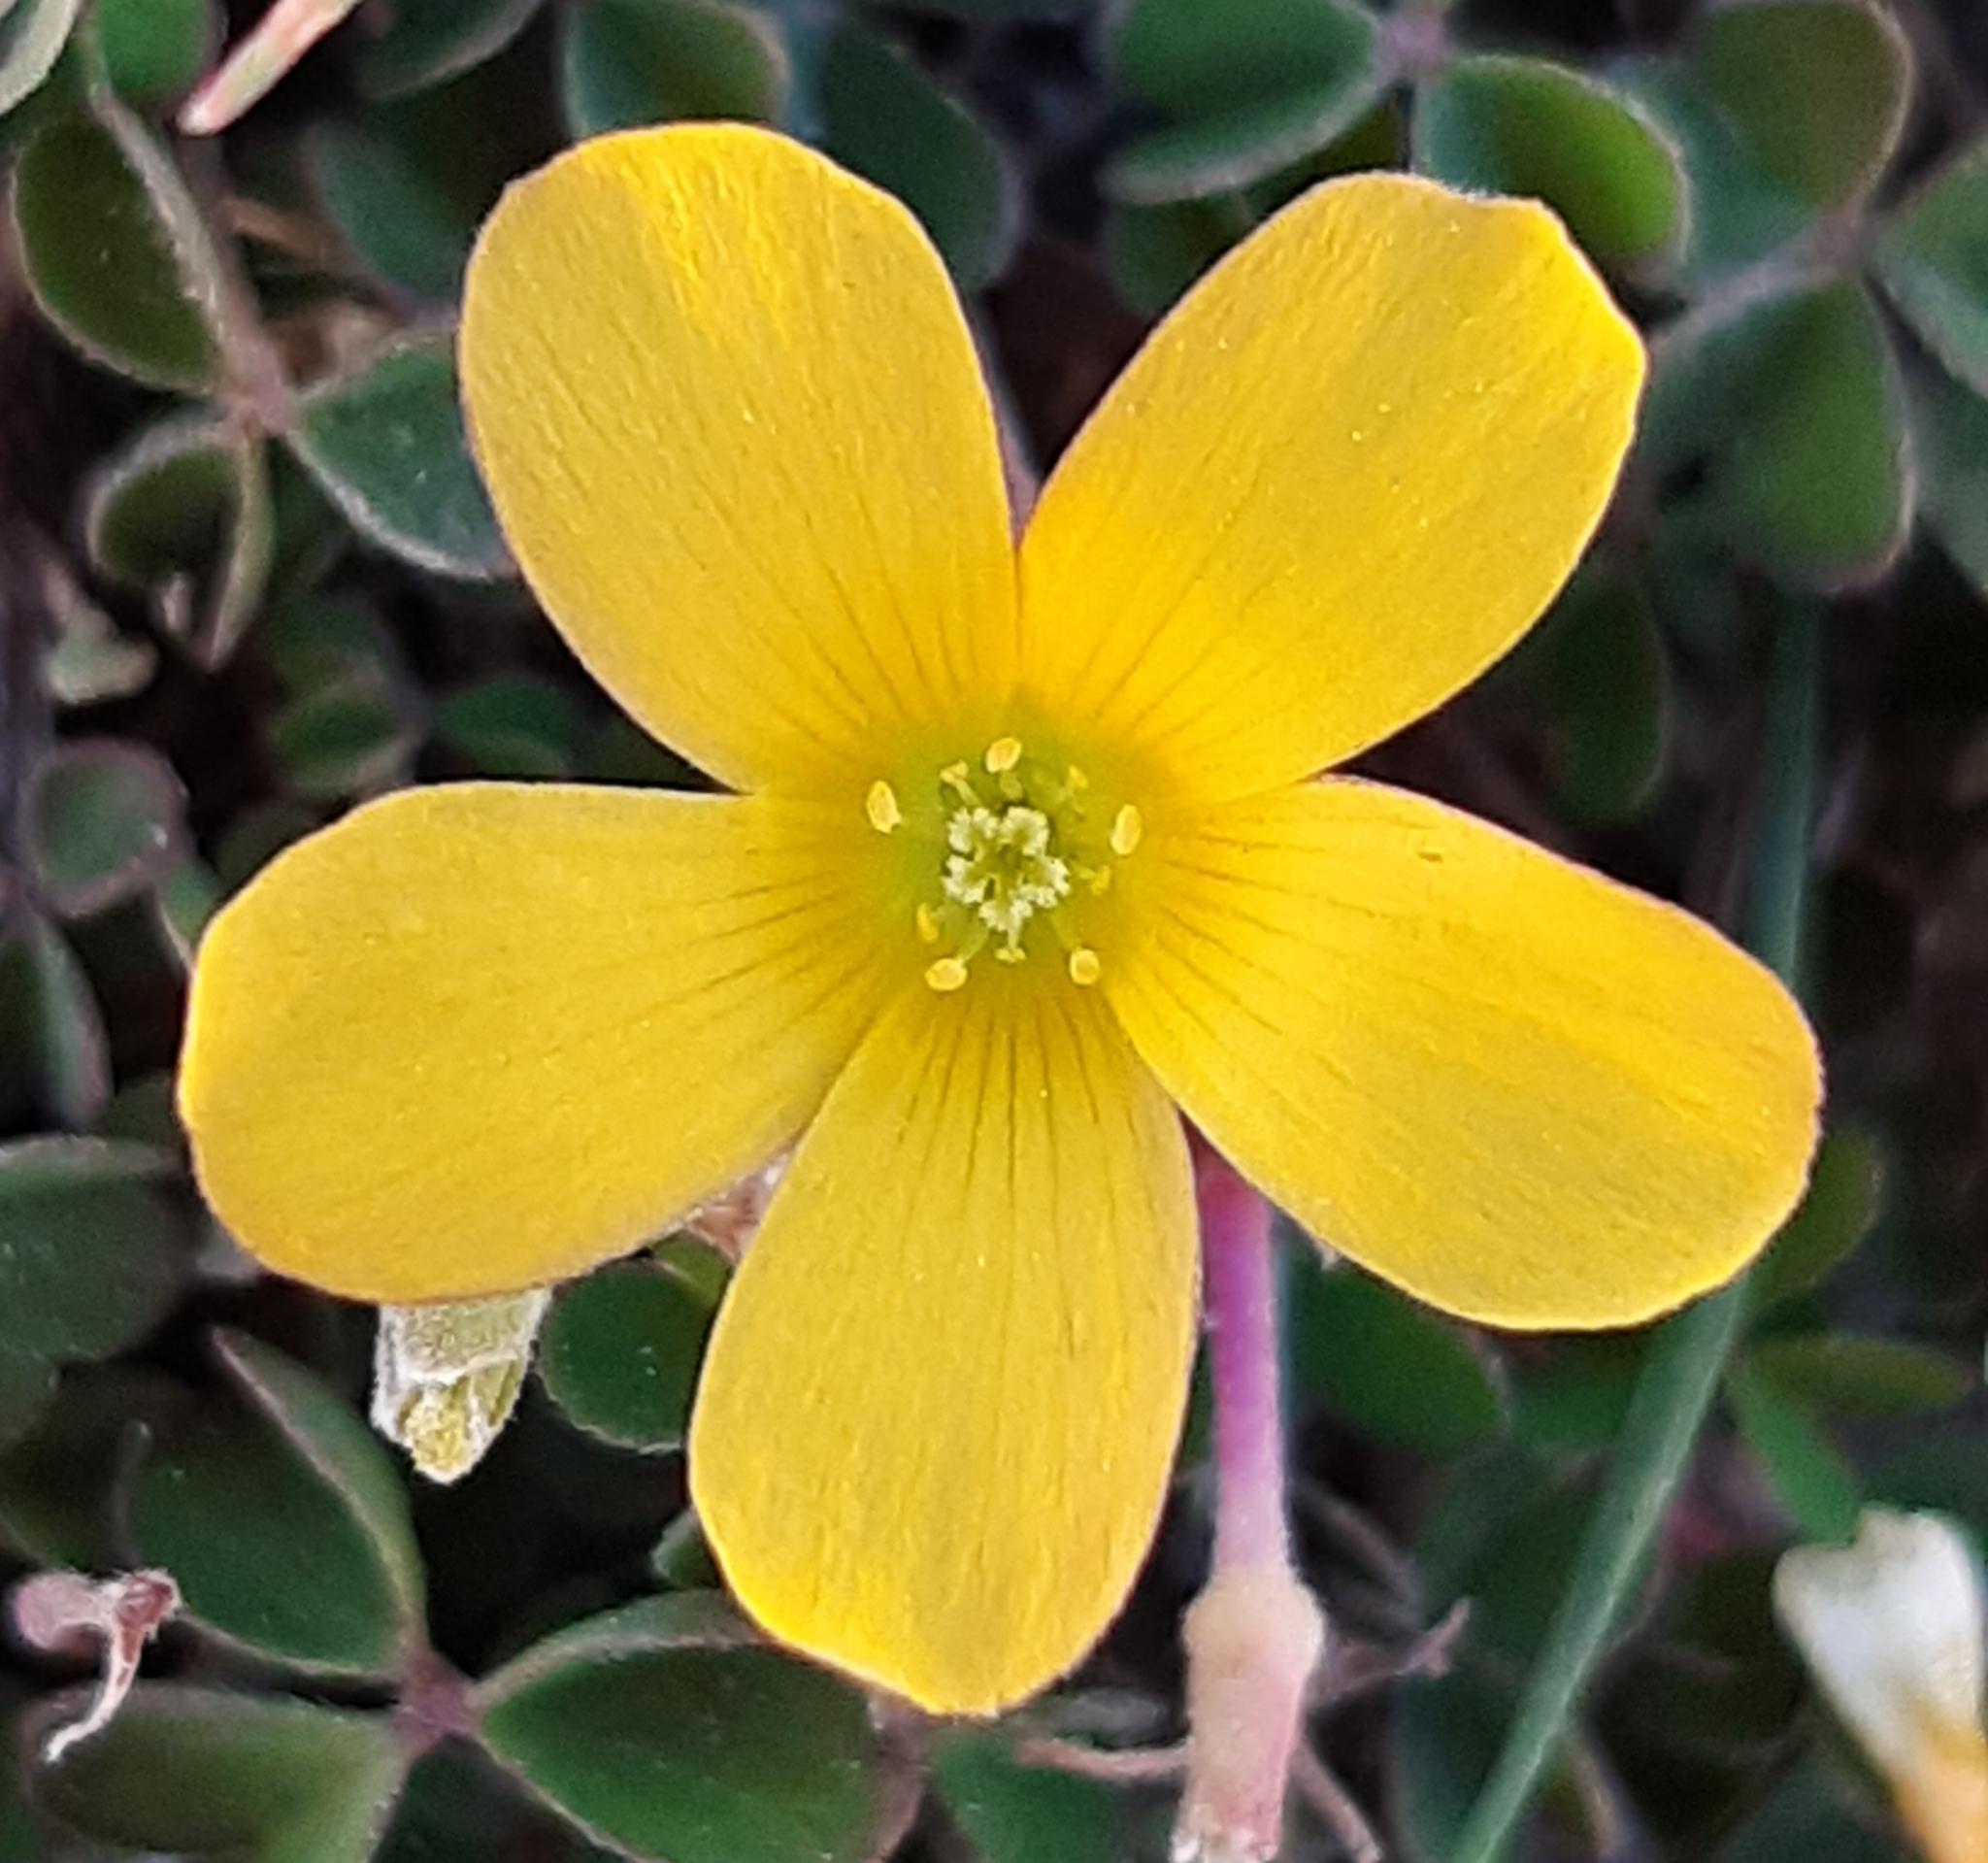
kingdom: Plantae
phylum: Tracheophyta
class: Magnoliopsida
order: Oxalidales
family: Oxalidaceae
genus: Oxalis
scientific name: Oxalis corniculata
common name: Procumbent yellow-sorrel
